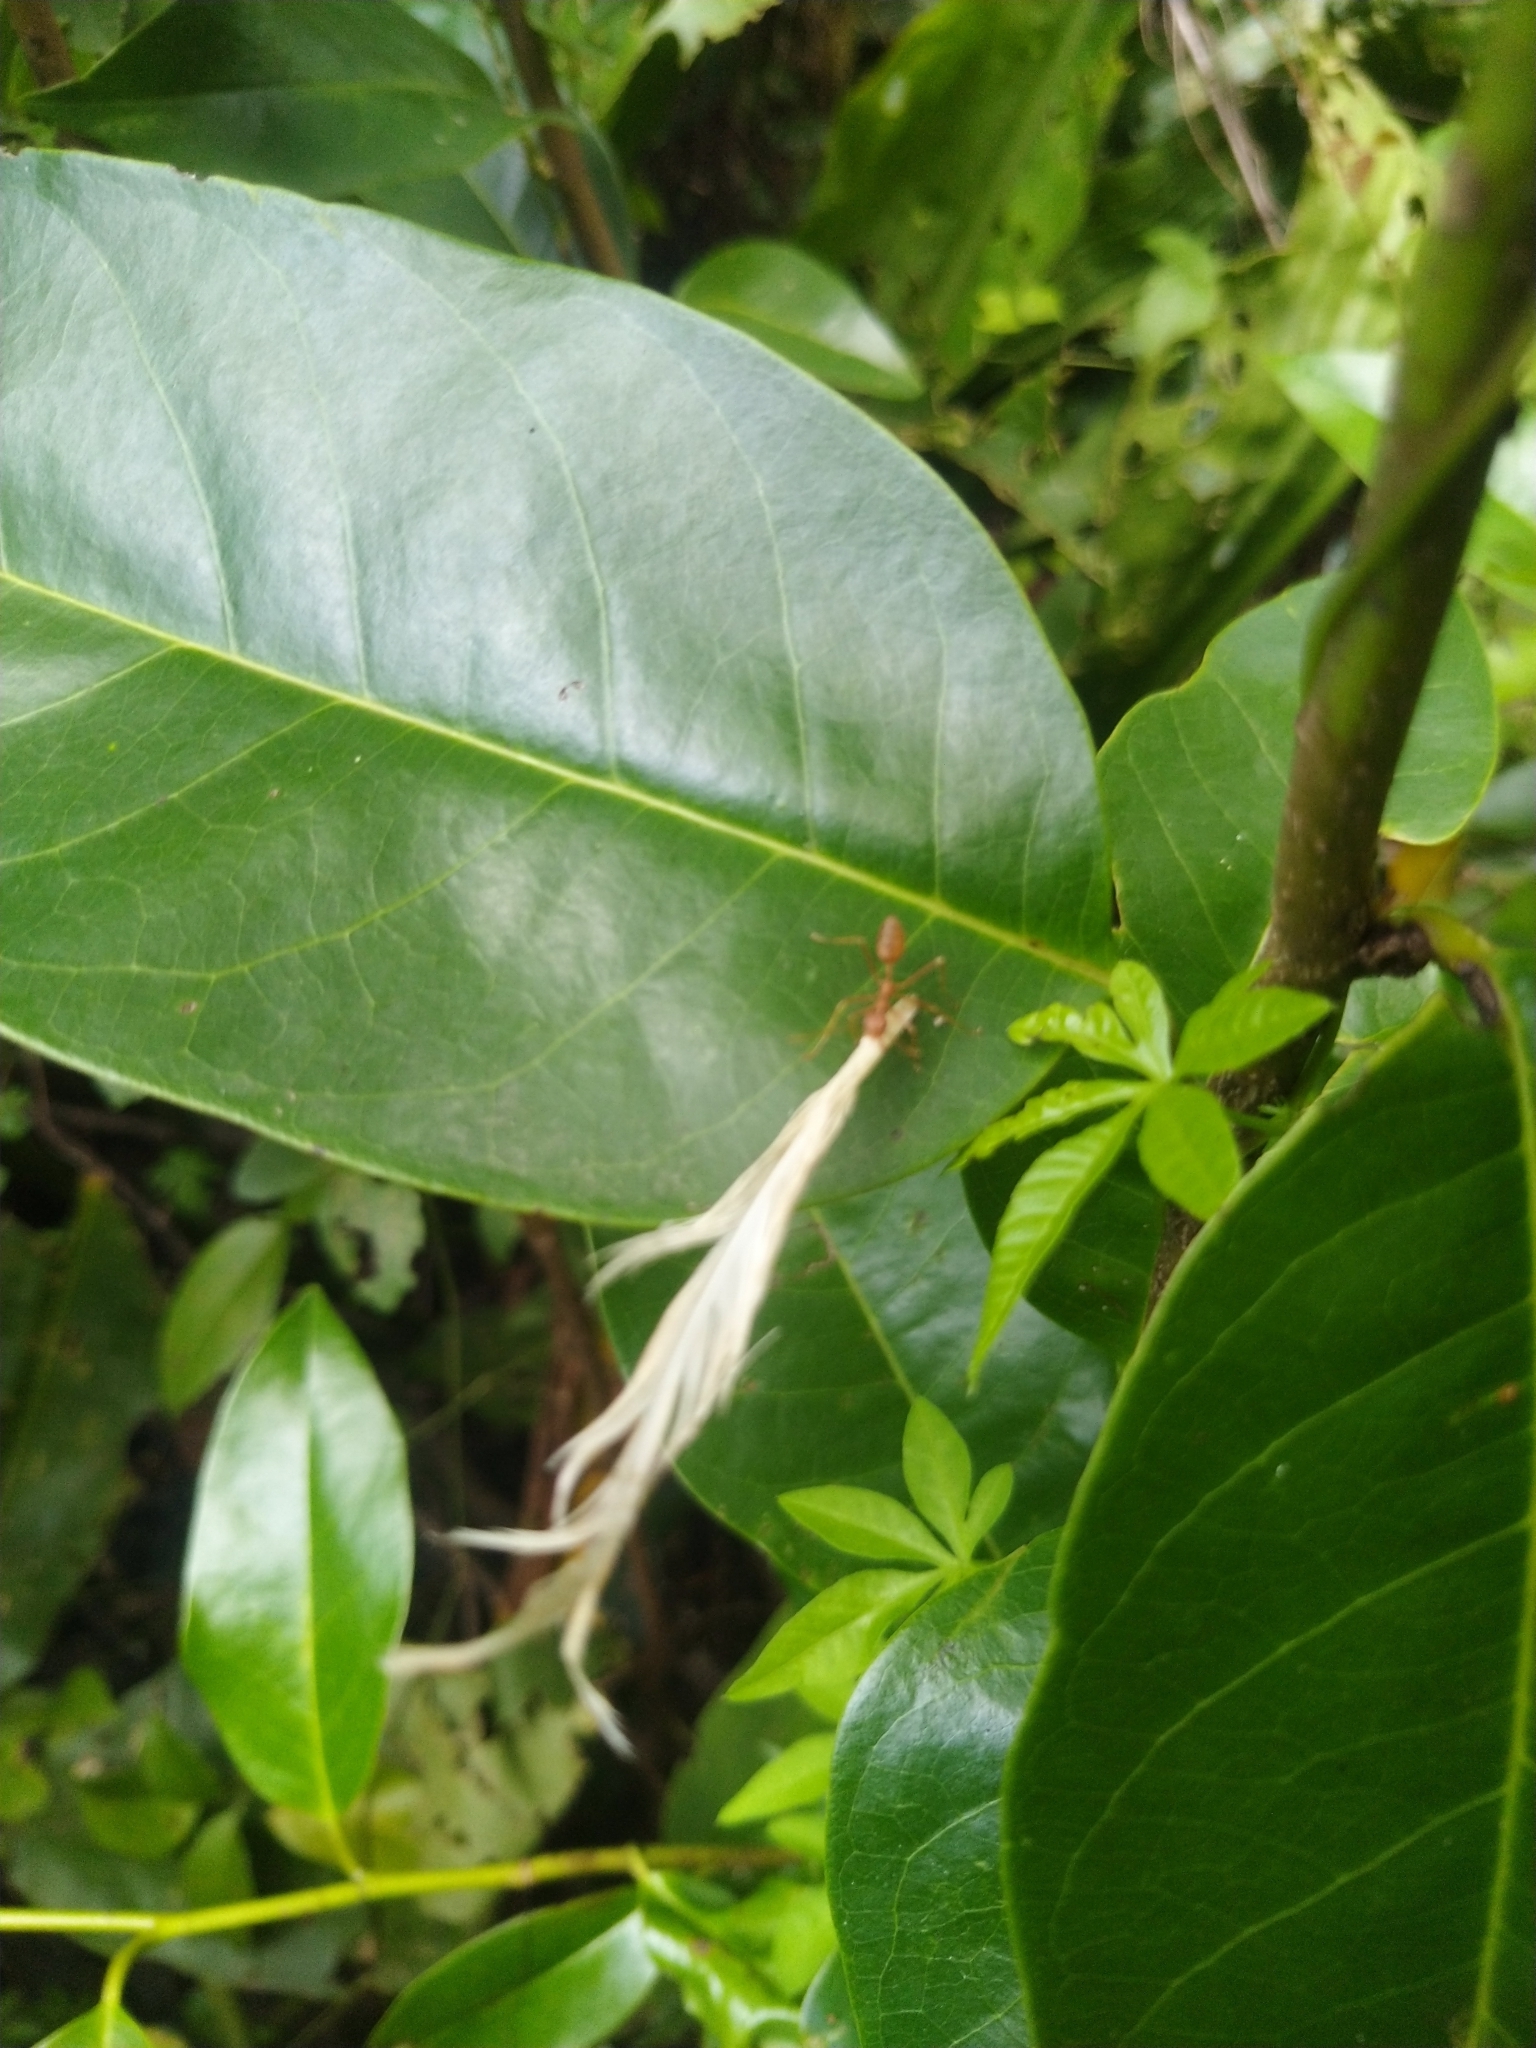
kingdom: Animalia
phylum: Arthropoda
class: Insecta
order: Hymenoptera
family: Formicidae
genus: Oecophylla
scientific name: Oecophylla smaragdina
